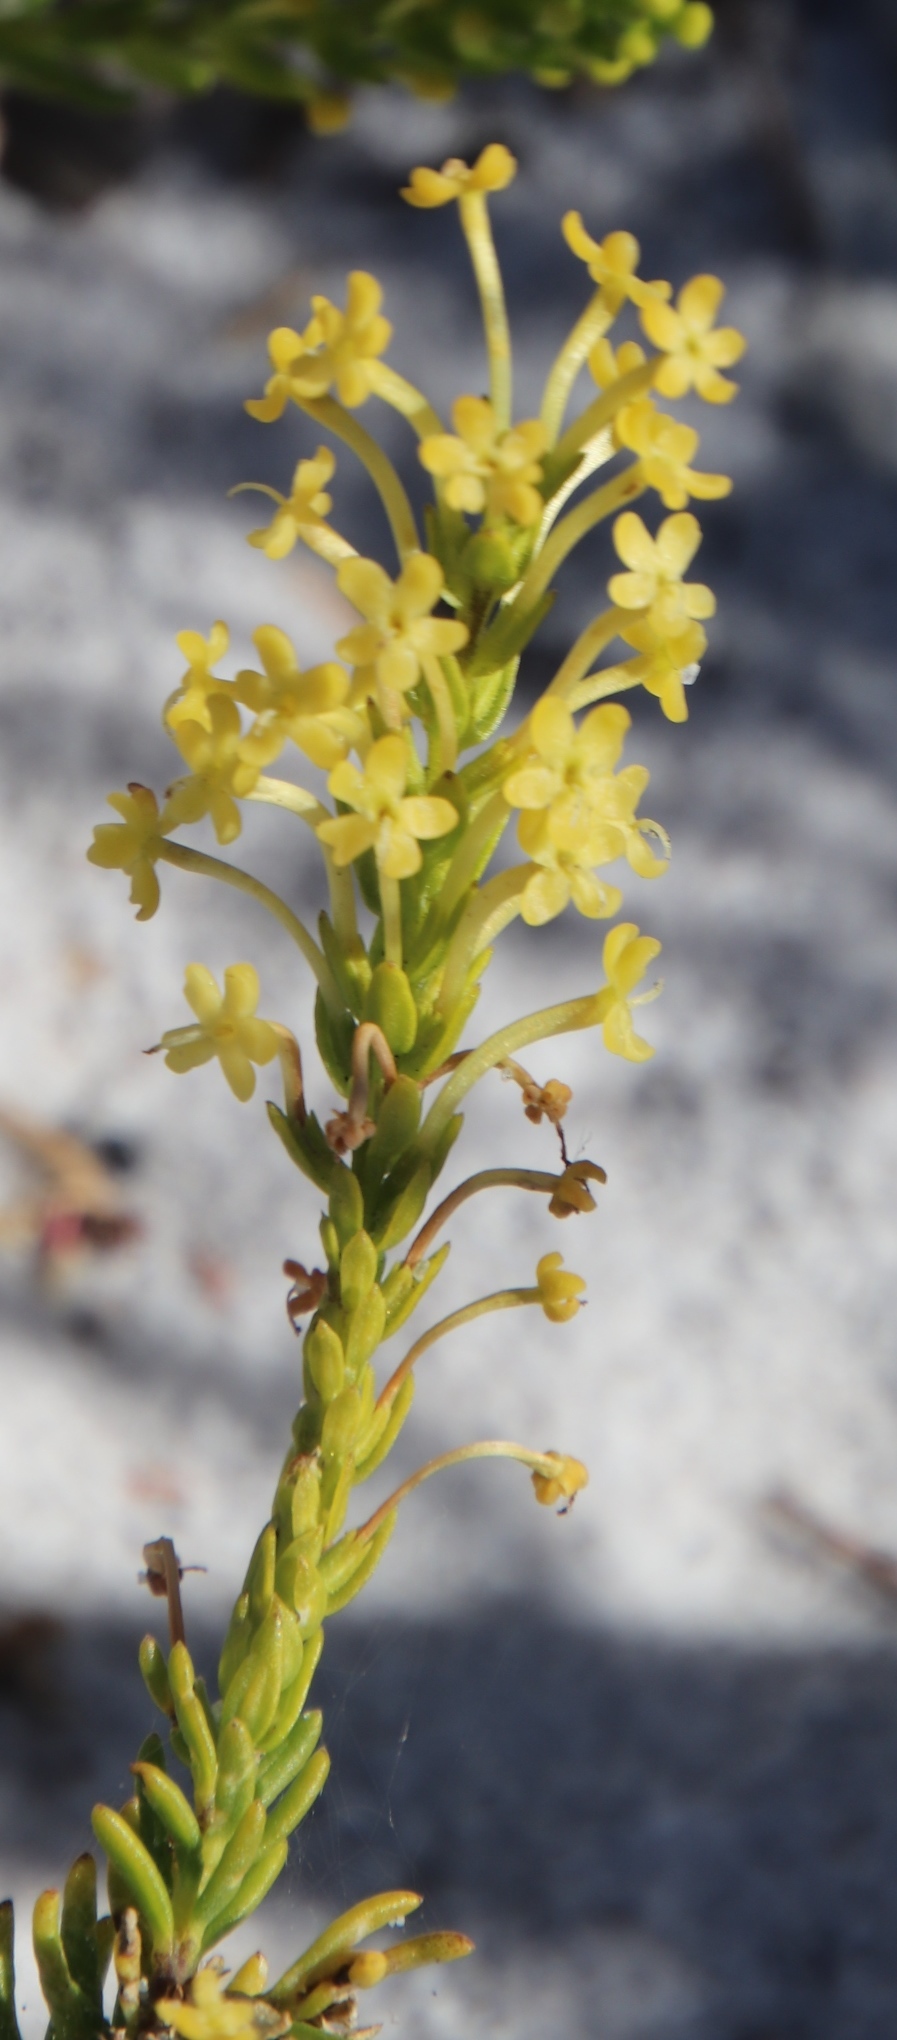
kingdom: Plantae
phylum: Tracheophyta
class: Magnoliopsida
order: Lamiales
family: Scrophulariaceae
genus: Microdon
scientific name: Microdon dubius
